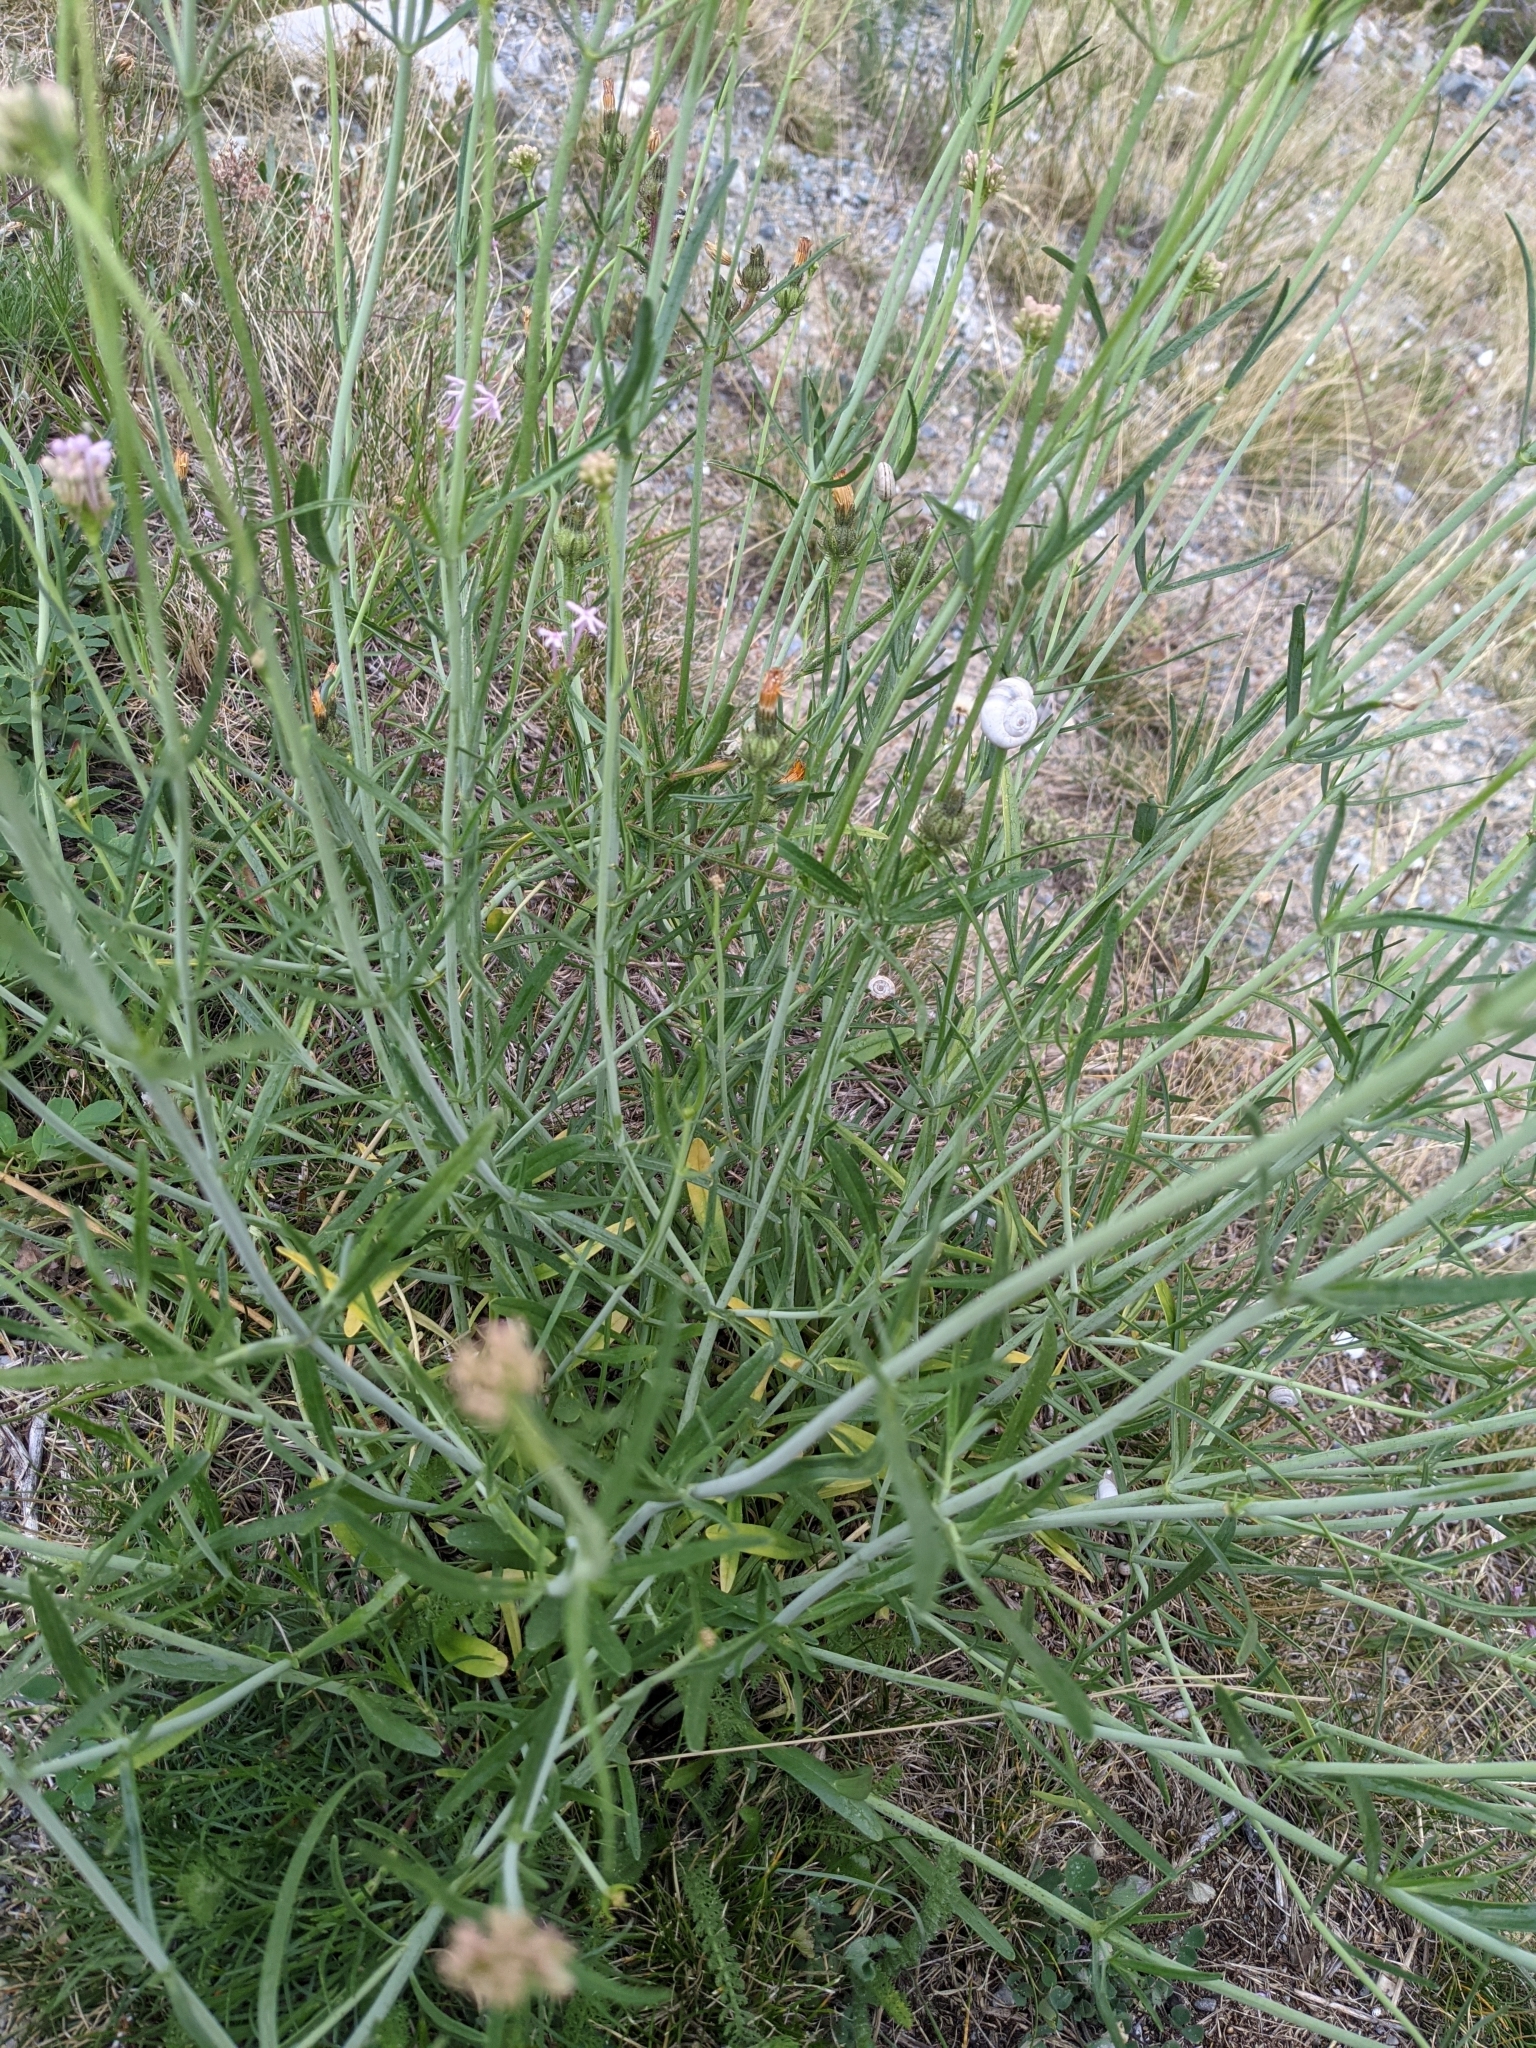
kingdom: Plantae
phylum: Tracheophyta
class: Magnoliopsida
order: Dipsacales
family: Caprifoliaceae
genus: Centranthus
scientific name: Centranthus angustifolius
